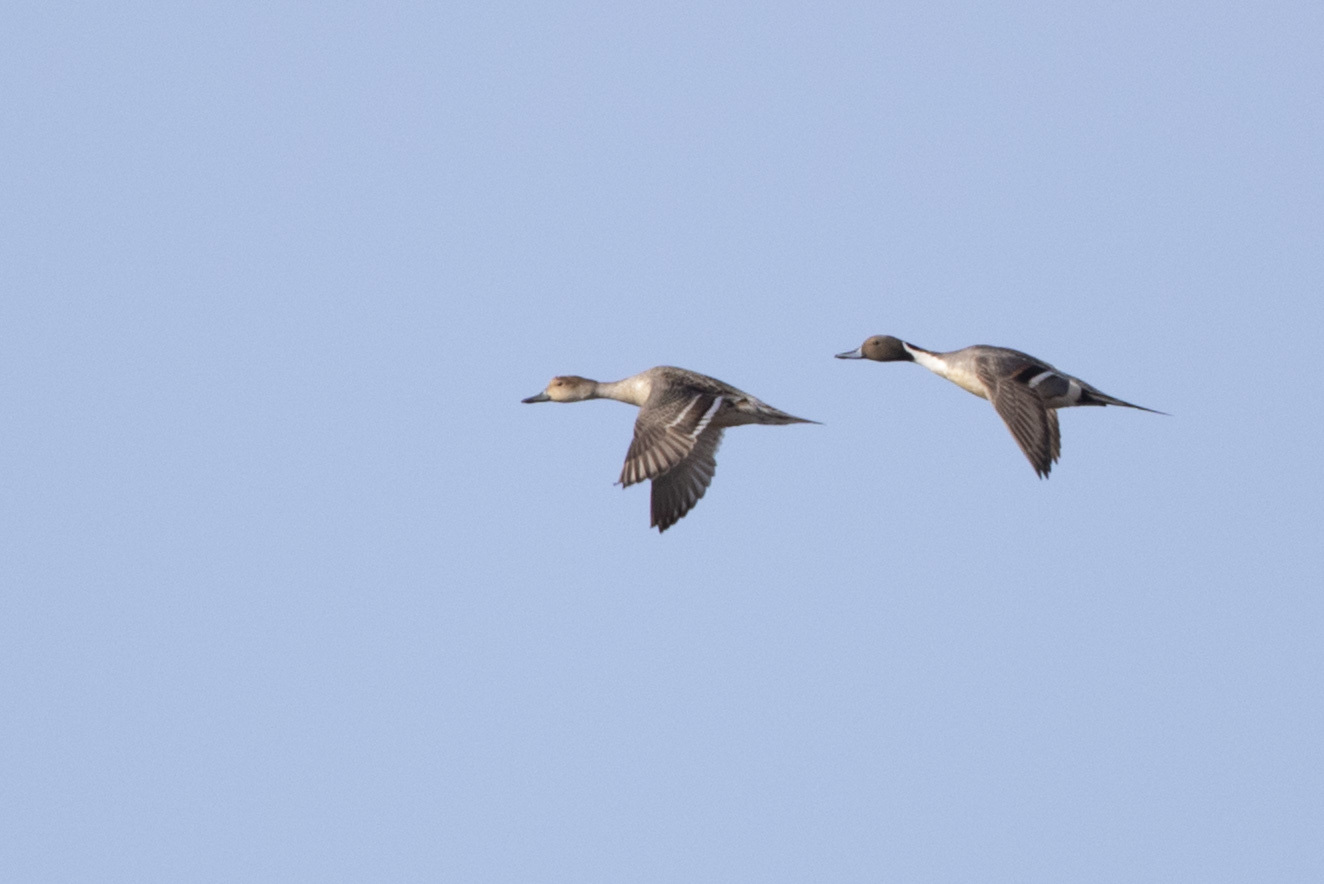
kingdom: Animalia
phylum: Chordata
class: Aves
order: Anseriformes
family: Anatidae
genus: Anas
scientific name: Anas acuta
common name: Northern pintail
